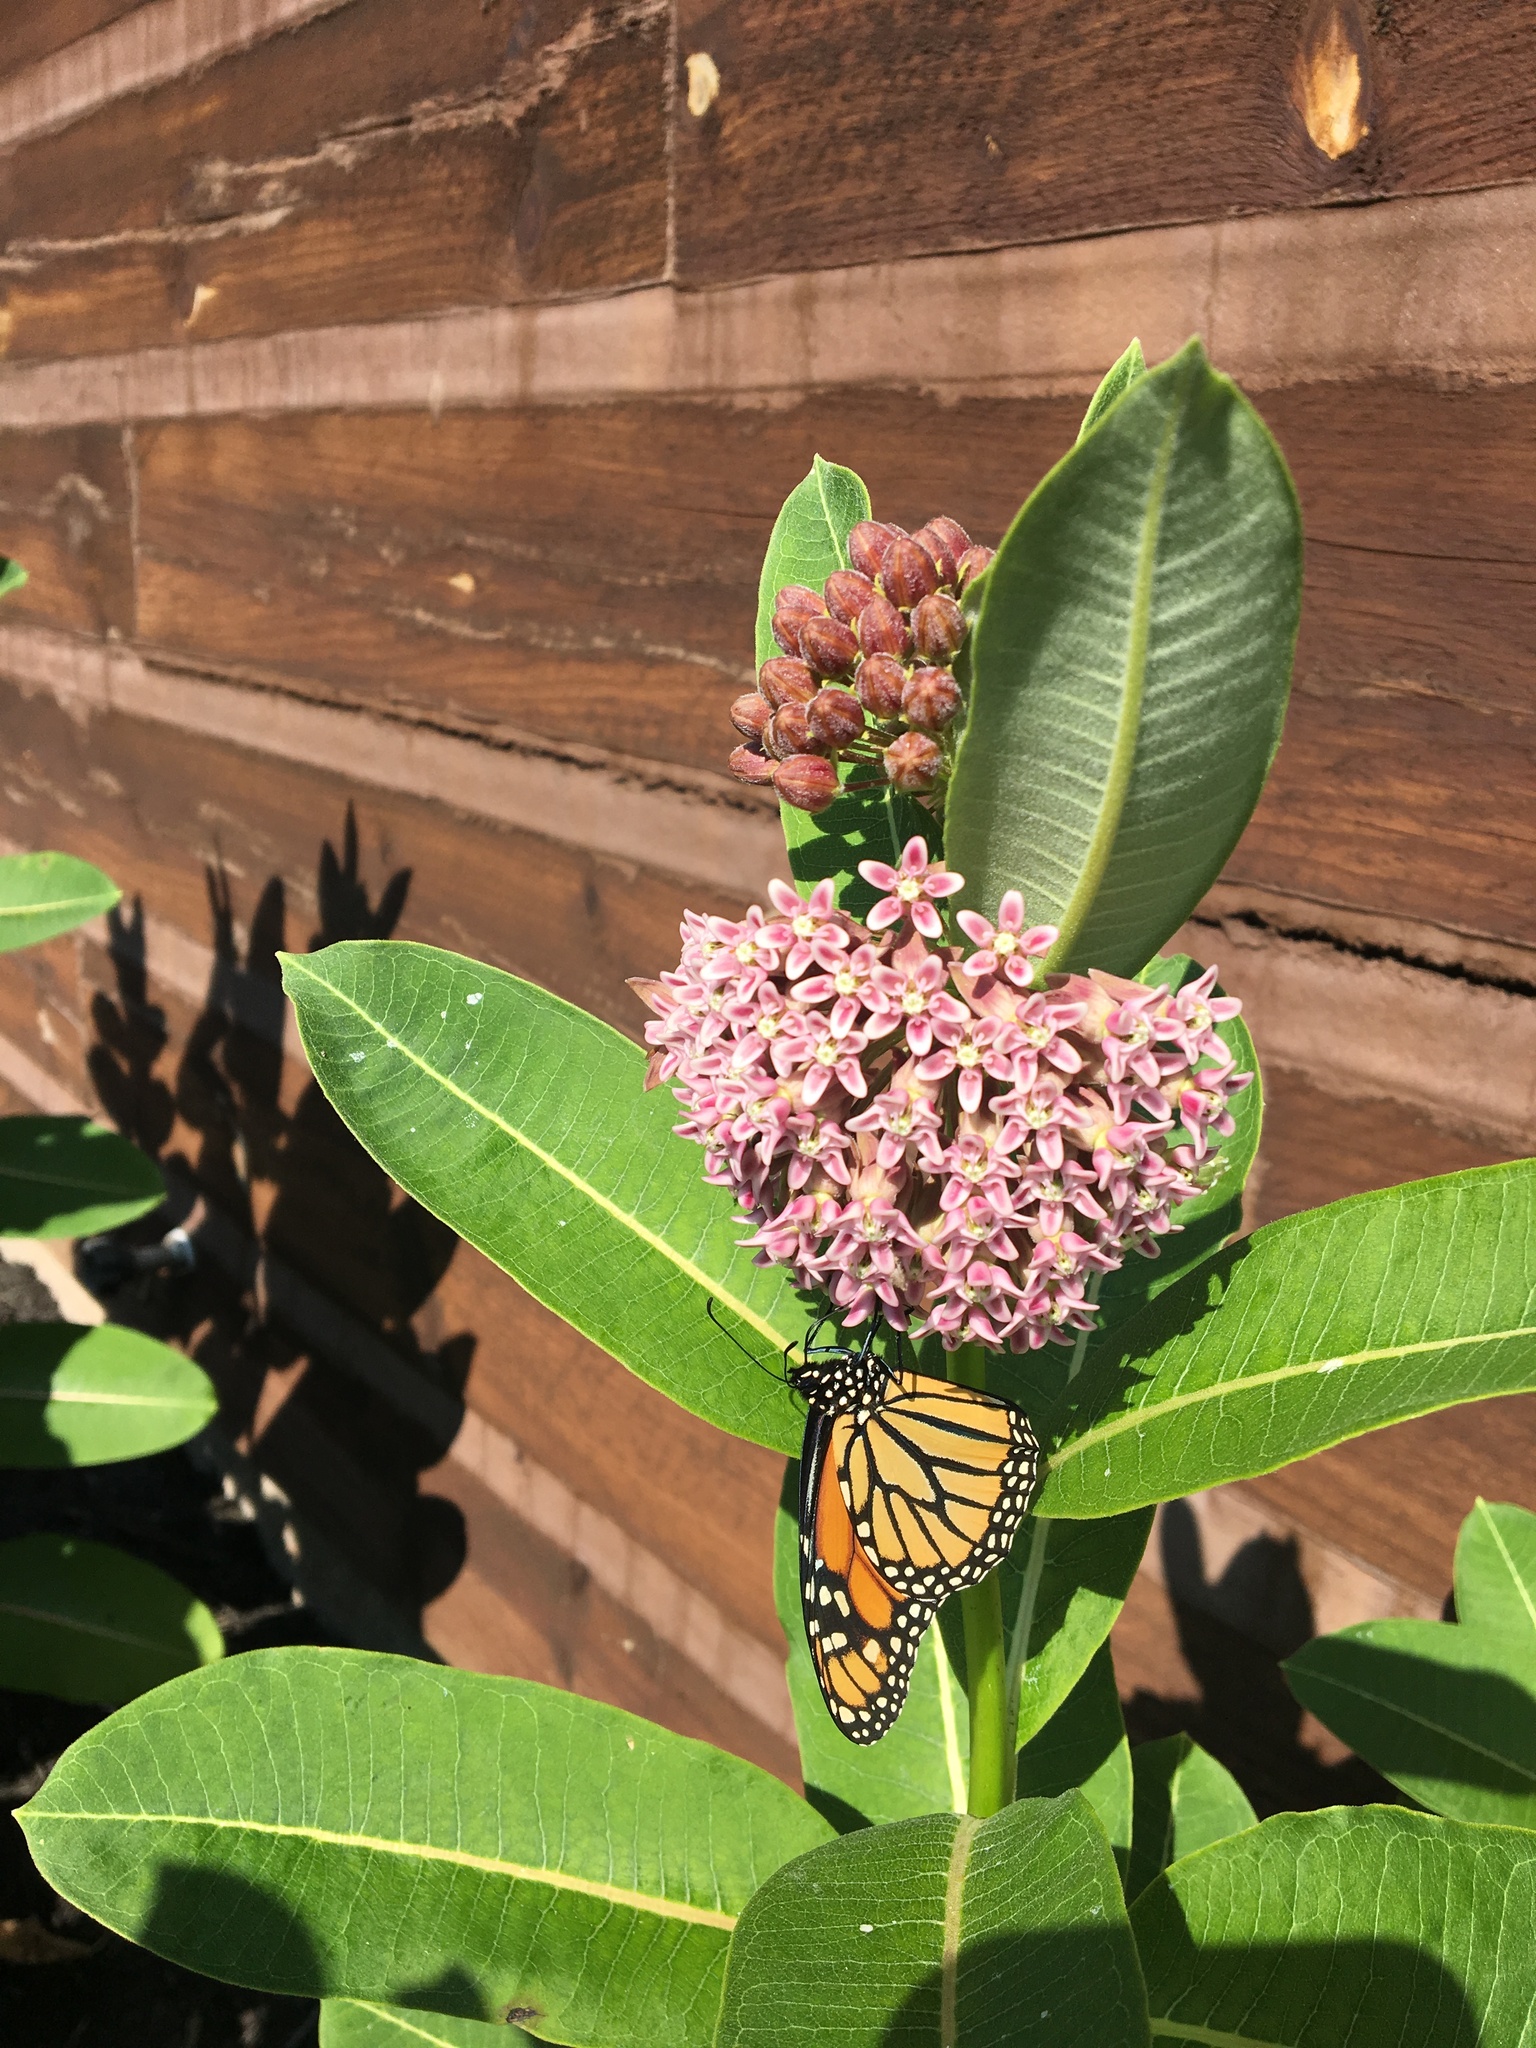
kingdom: Animalia
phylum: Arthropoda
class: Insecta
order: Lepidoptera
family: Nymphalidae
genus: Danaus
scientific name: Danaus plexippus
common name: Monarch
